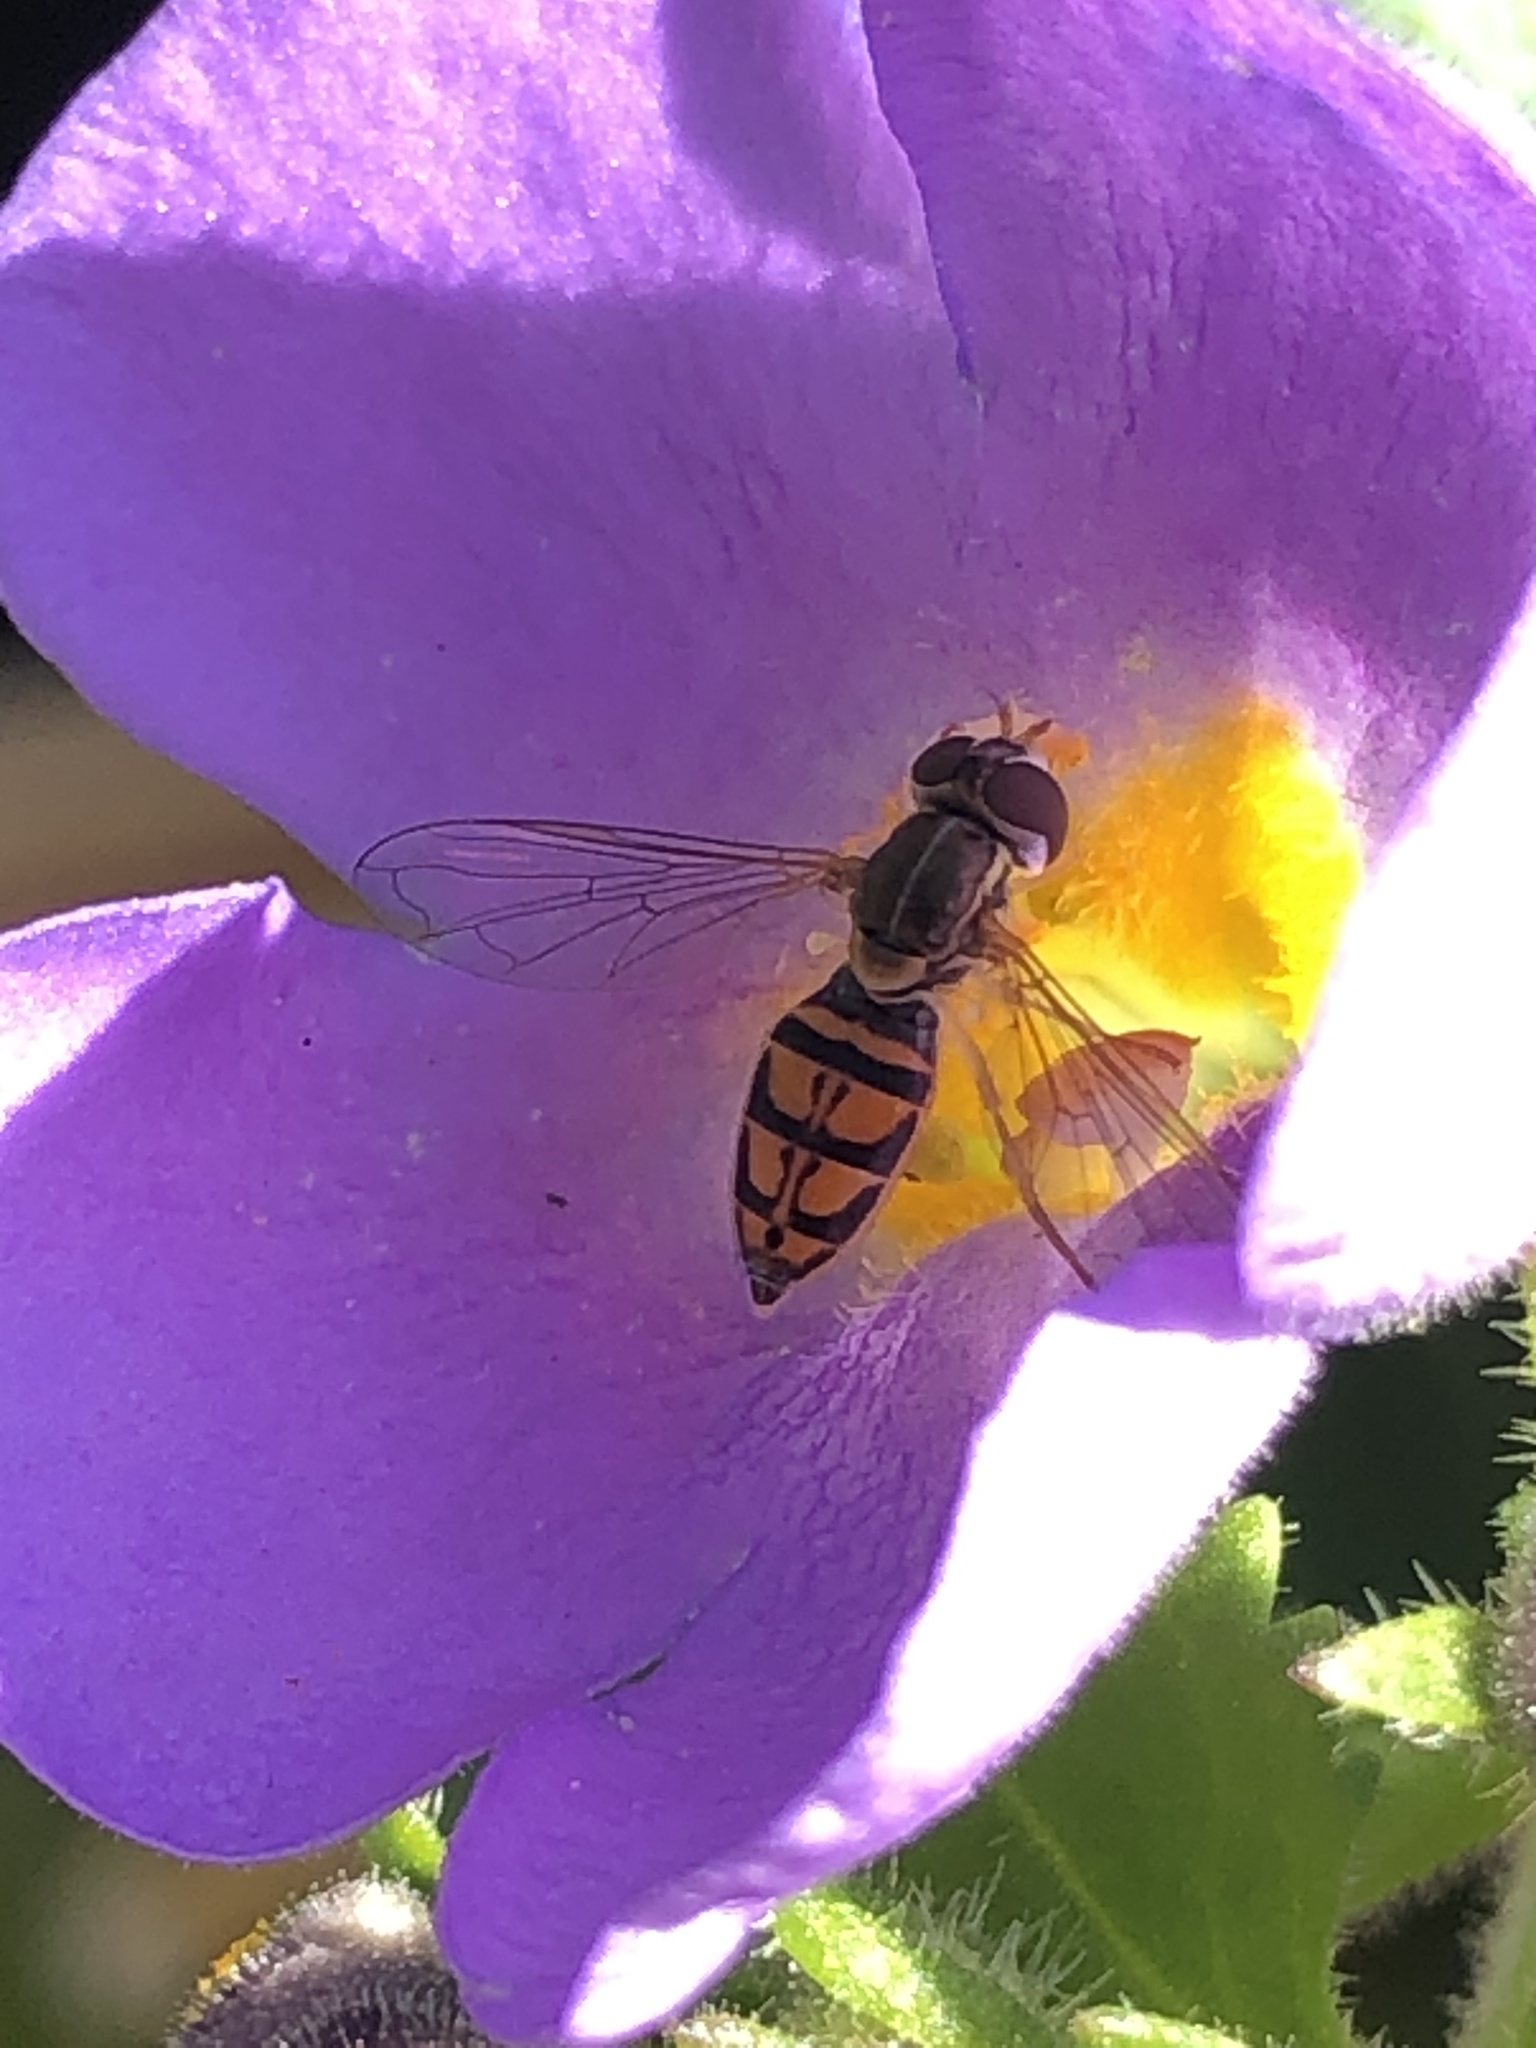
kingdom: Animalia
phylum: Arthropoda
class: Insecta
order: Diptera
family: Syrphidae
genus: Toxomerus
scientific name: Toxomerus marginatus
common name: Syrphid fly
